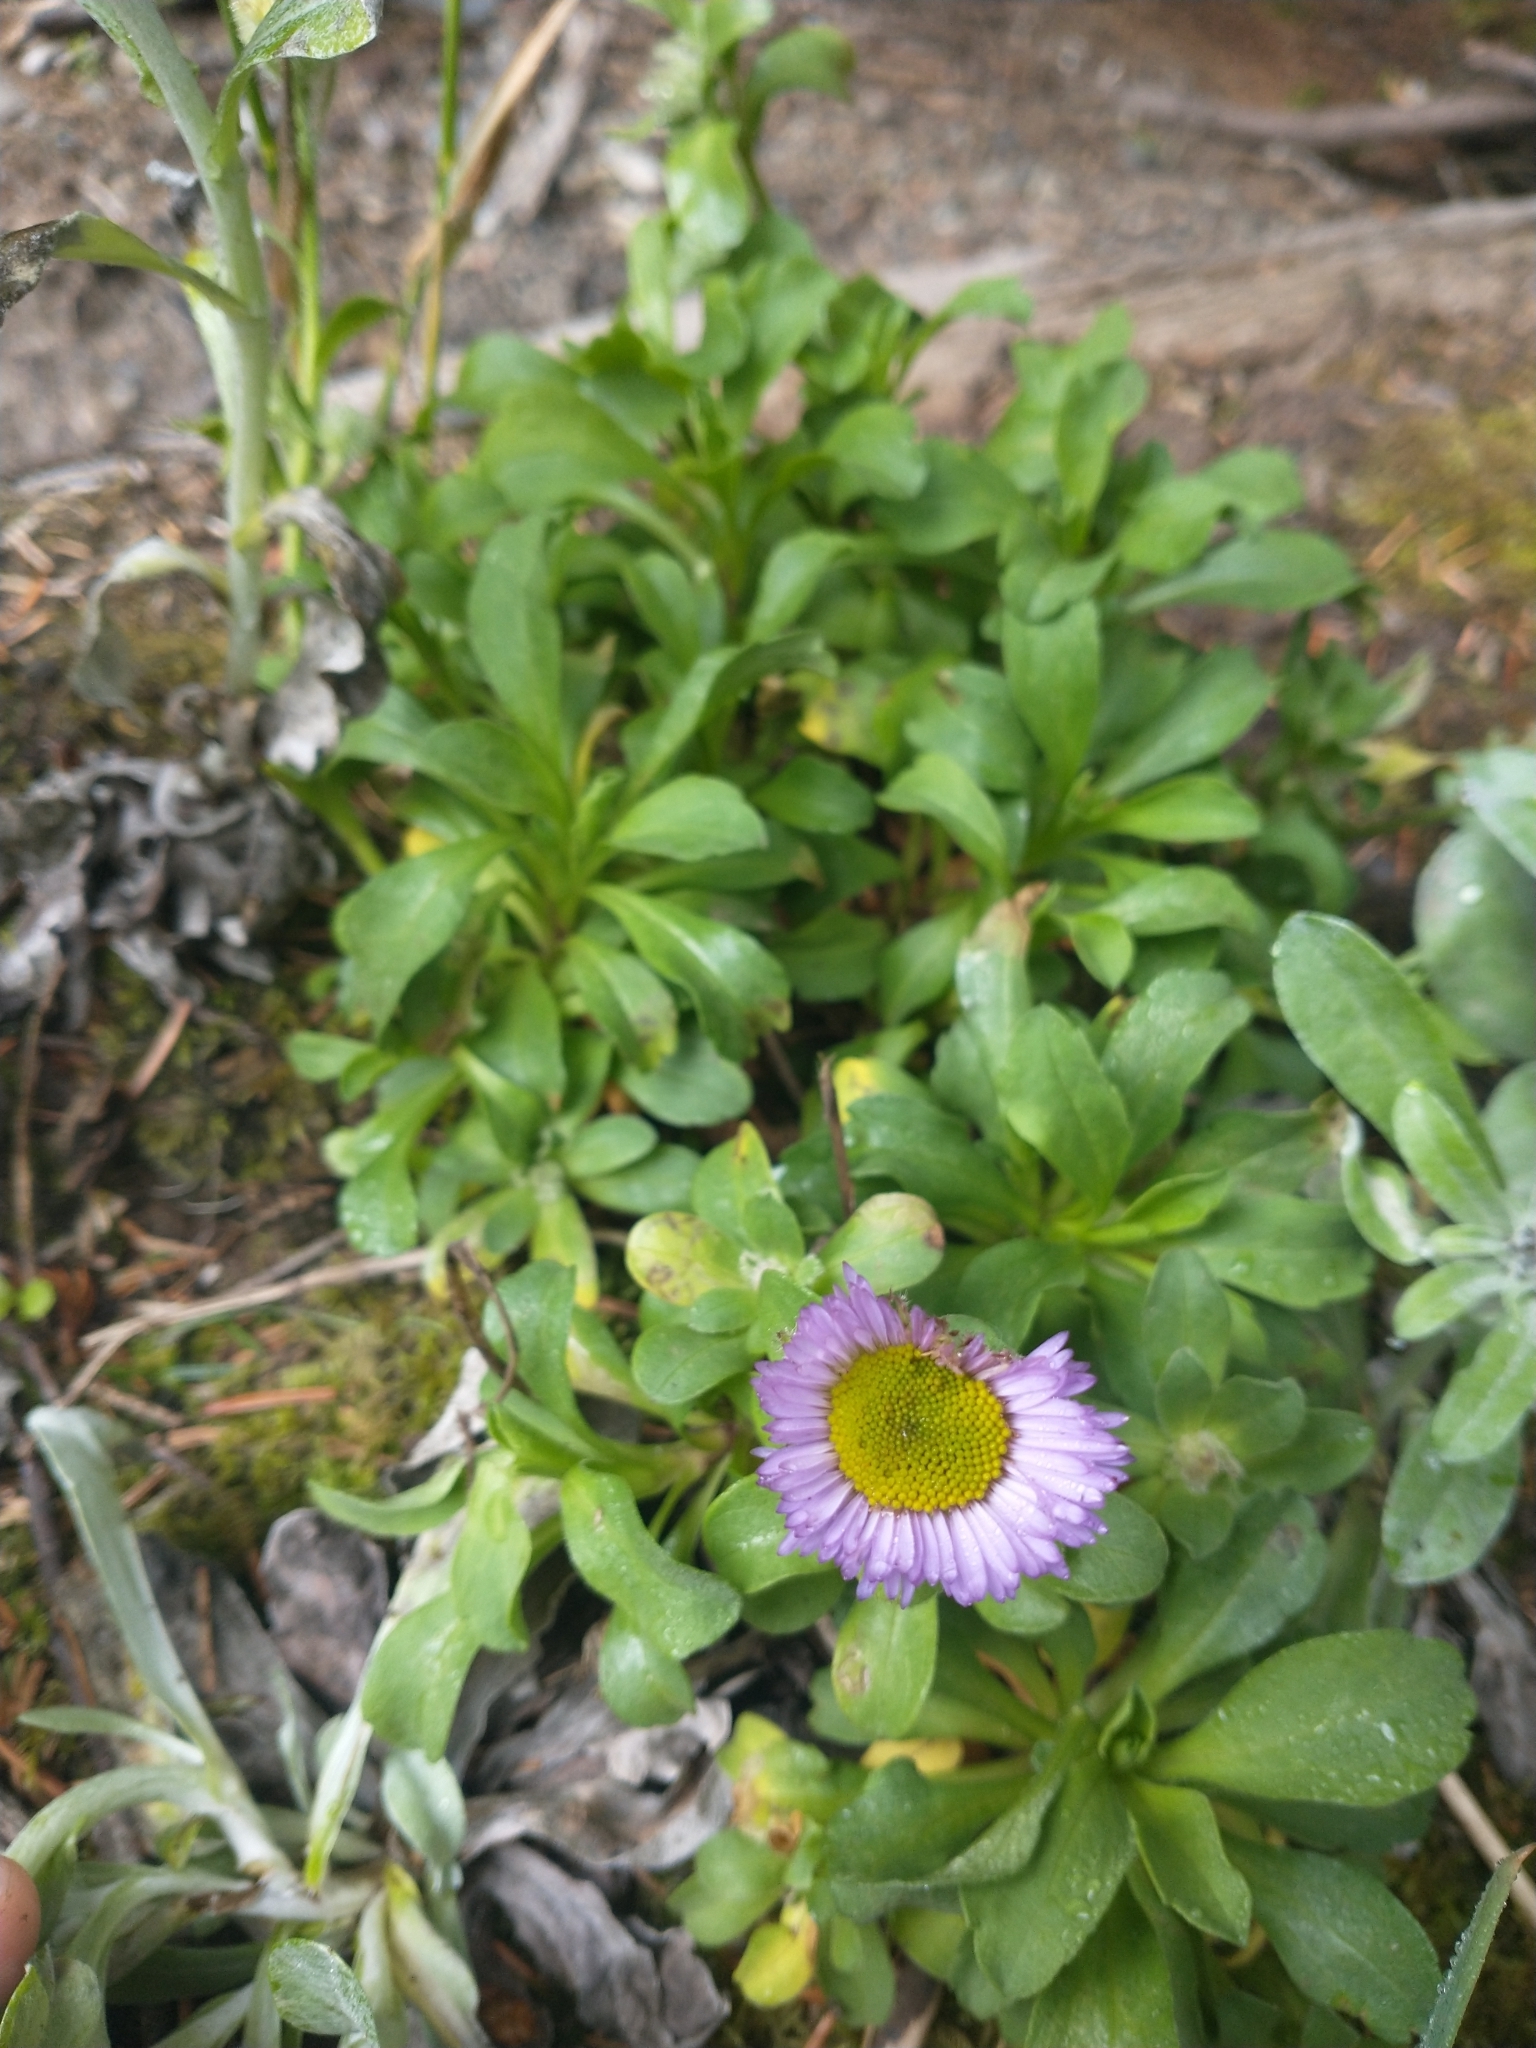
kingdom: Plantae
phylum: Tracheophyta
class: Magnoliopsida
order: Asterales
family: Asteraceae
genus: Erigeron
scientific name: Erigeron glaucus
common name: Seaside daisy
